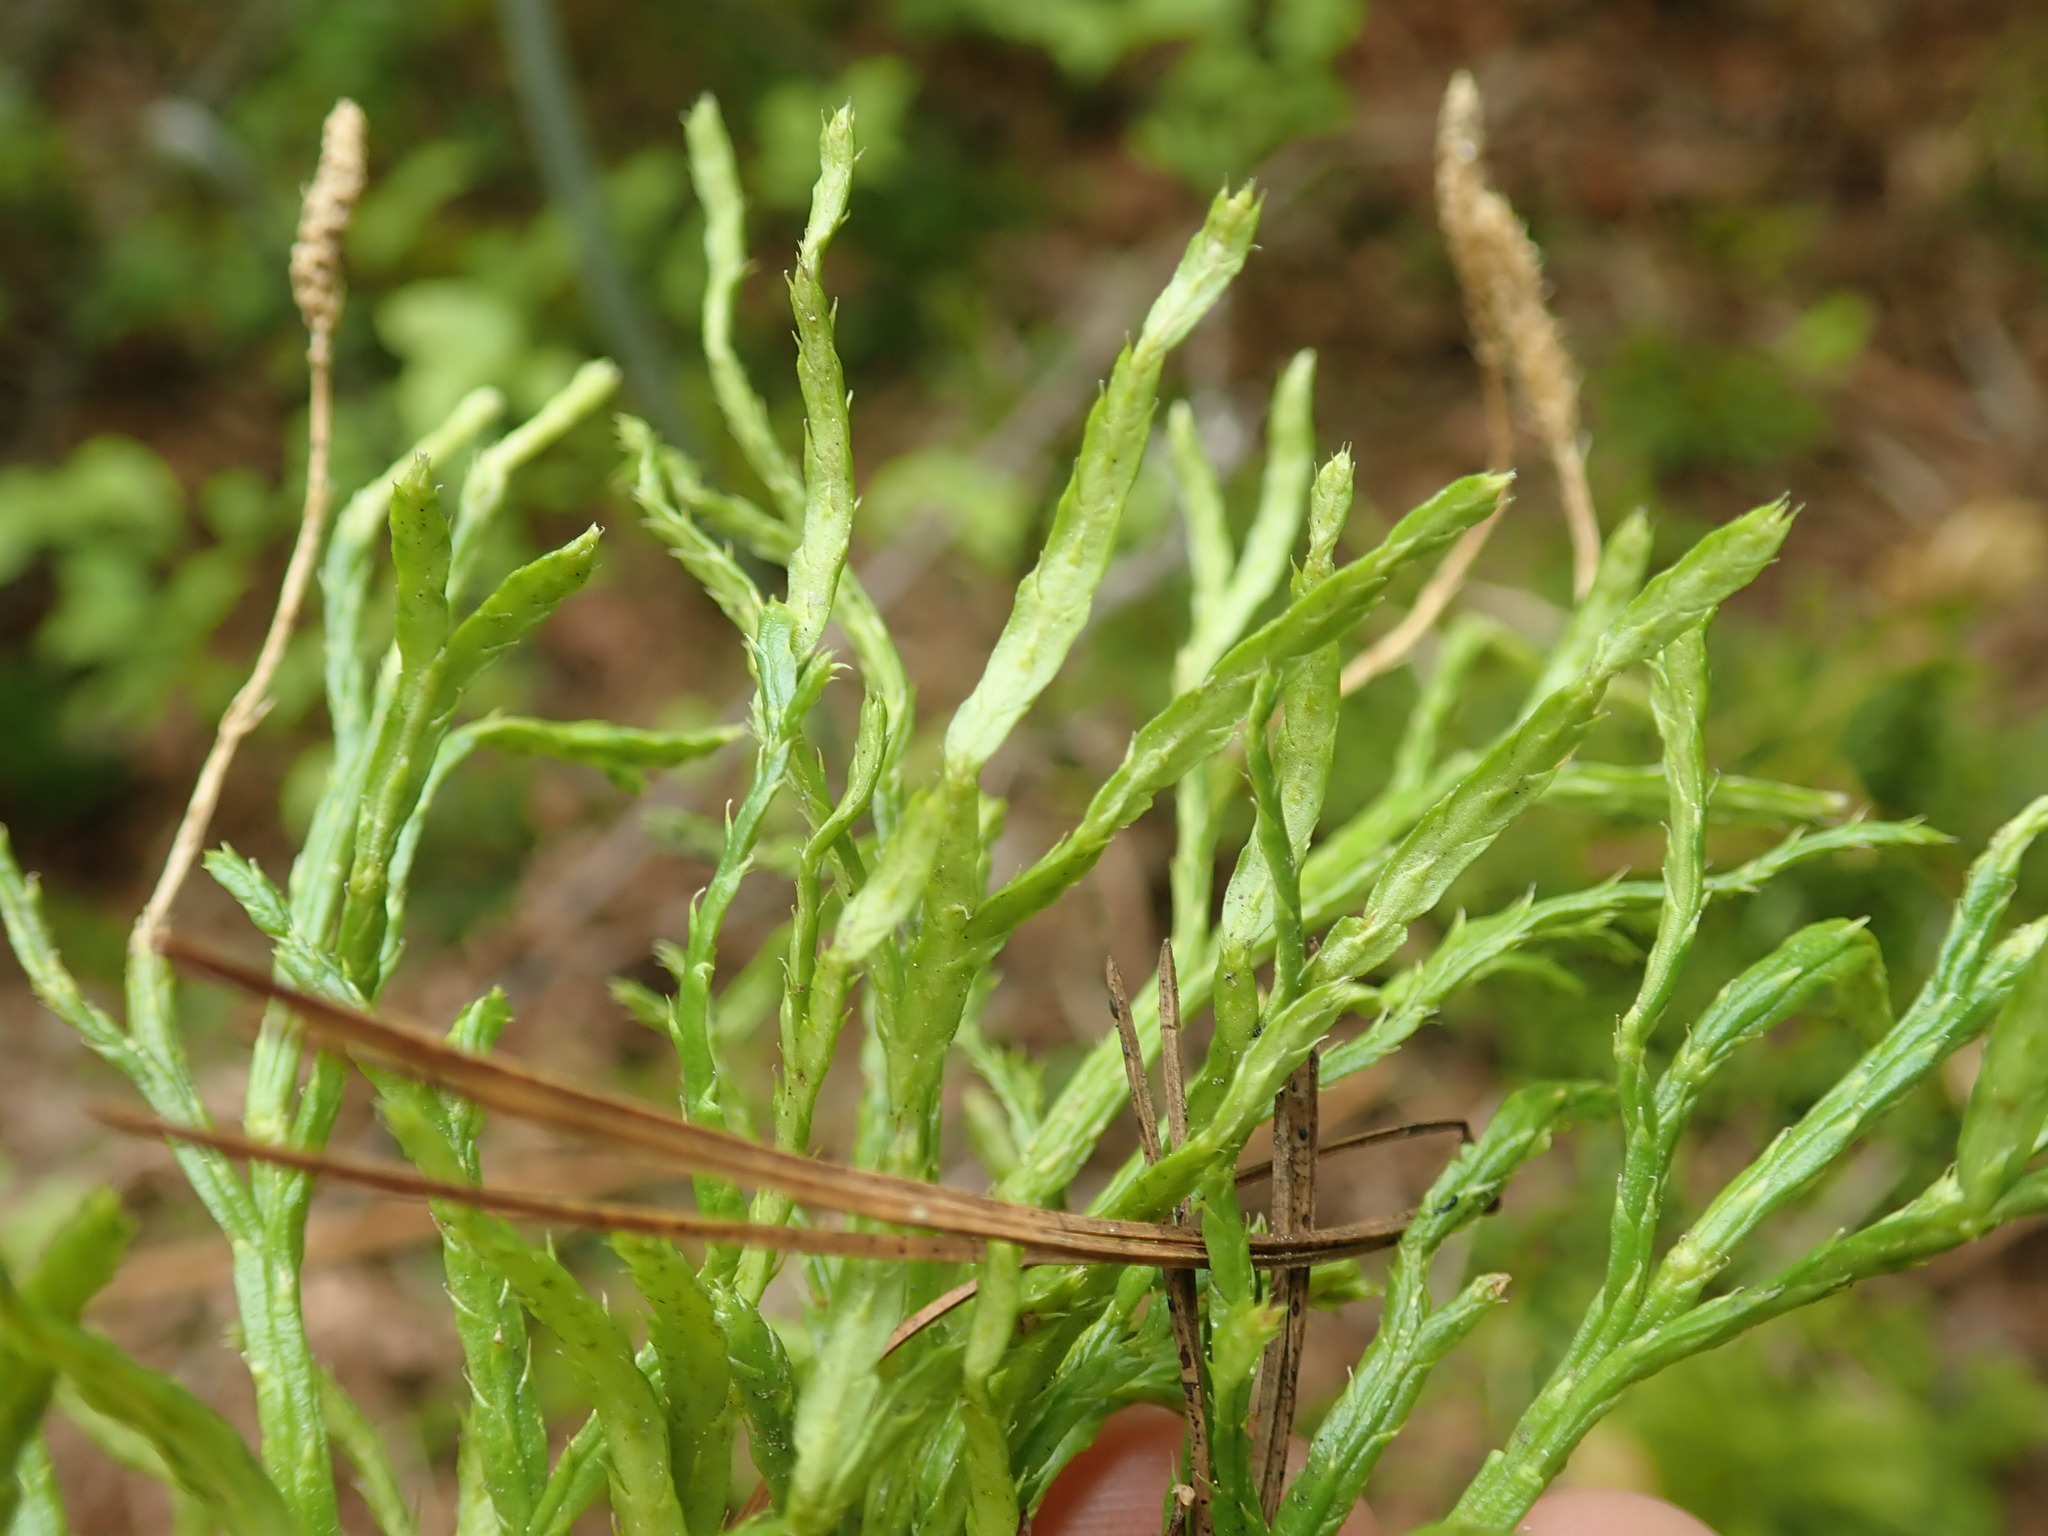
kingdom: Plantae
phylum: Tracheophyta
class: Lycopodiopsida
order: Lycopodiales
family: Lycopodiaceae
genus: Diphasiastrum
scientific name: Diphasiastrum complanatum
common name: Northern running-pine
